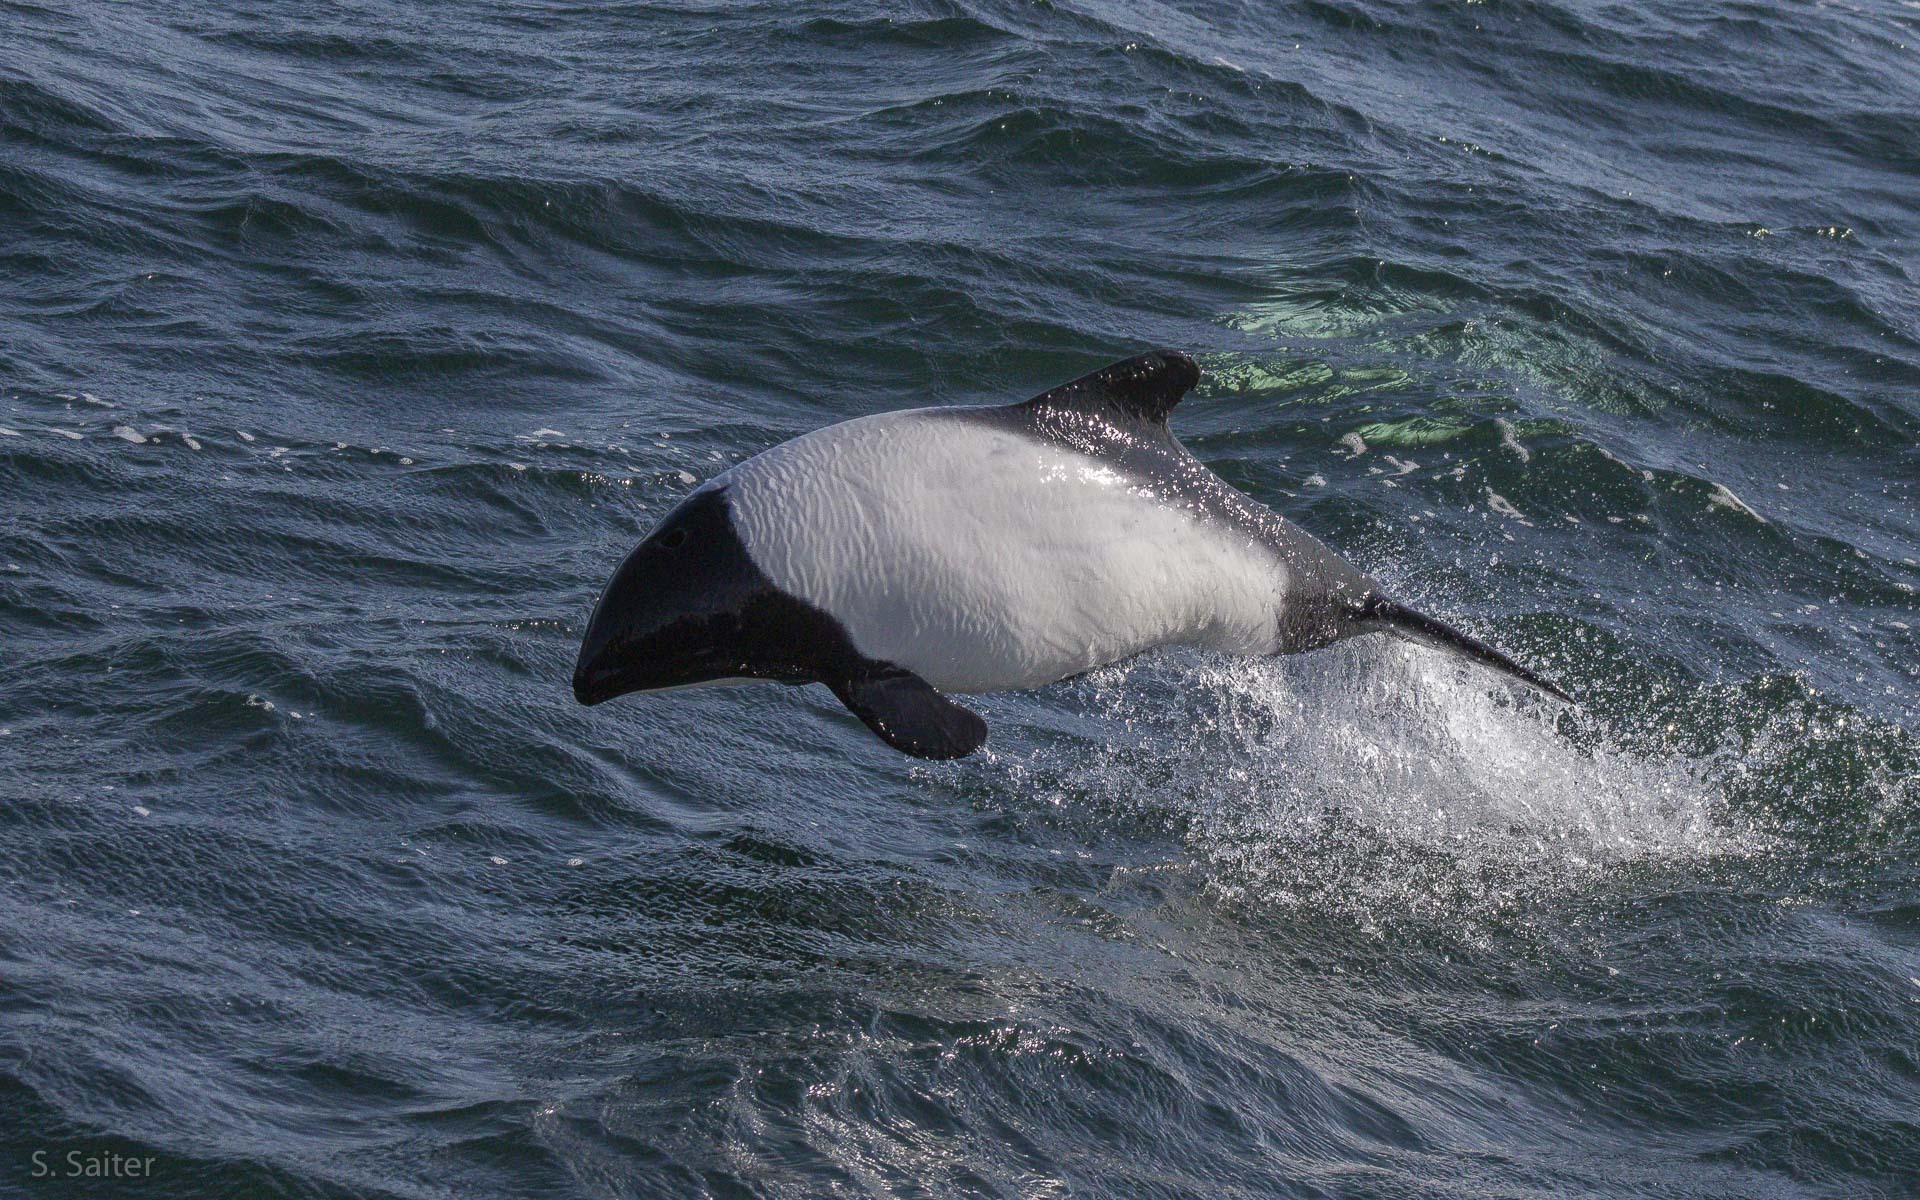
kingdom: Animalia
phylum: Chordata
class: Mammalia
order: Cetacea
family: Delphinidae
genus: Cephalorhynchus
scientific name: Cephalorhynchus commersonii
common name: Commerson's dolphin
